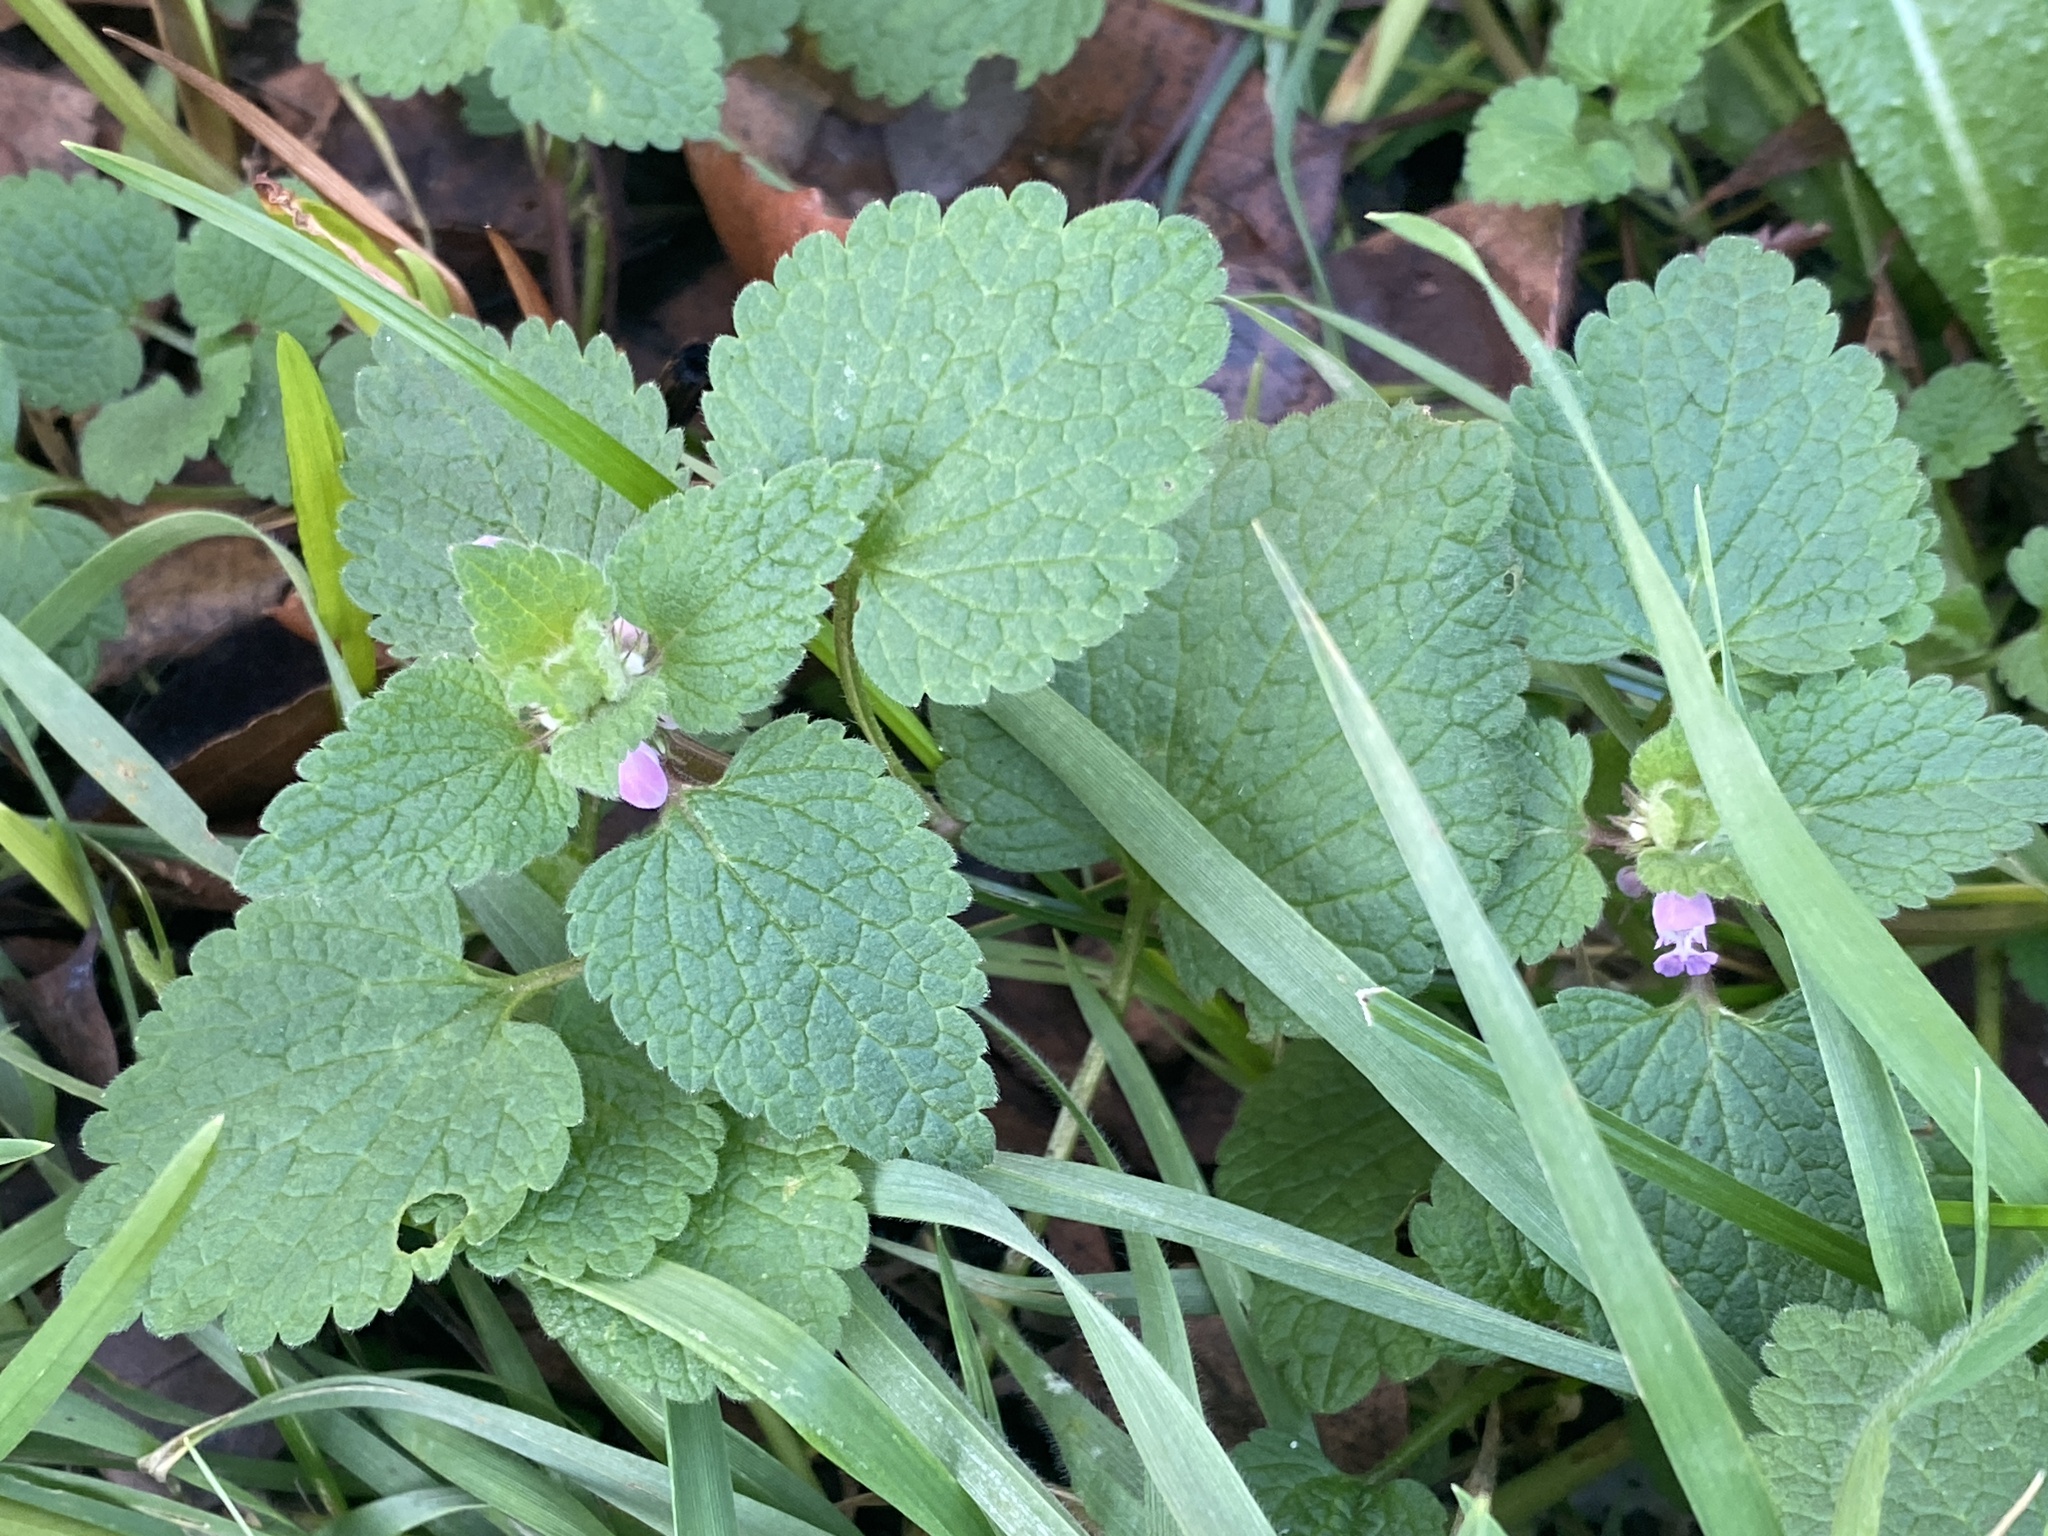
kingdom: Plantae
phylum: Tracheophyta
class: Magnoliopsida
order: Lamiales
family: Lamiaceae
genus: Lamium
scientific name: Lamium purpureum
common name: Red dead-nettle
